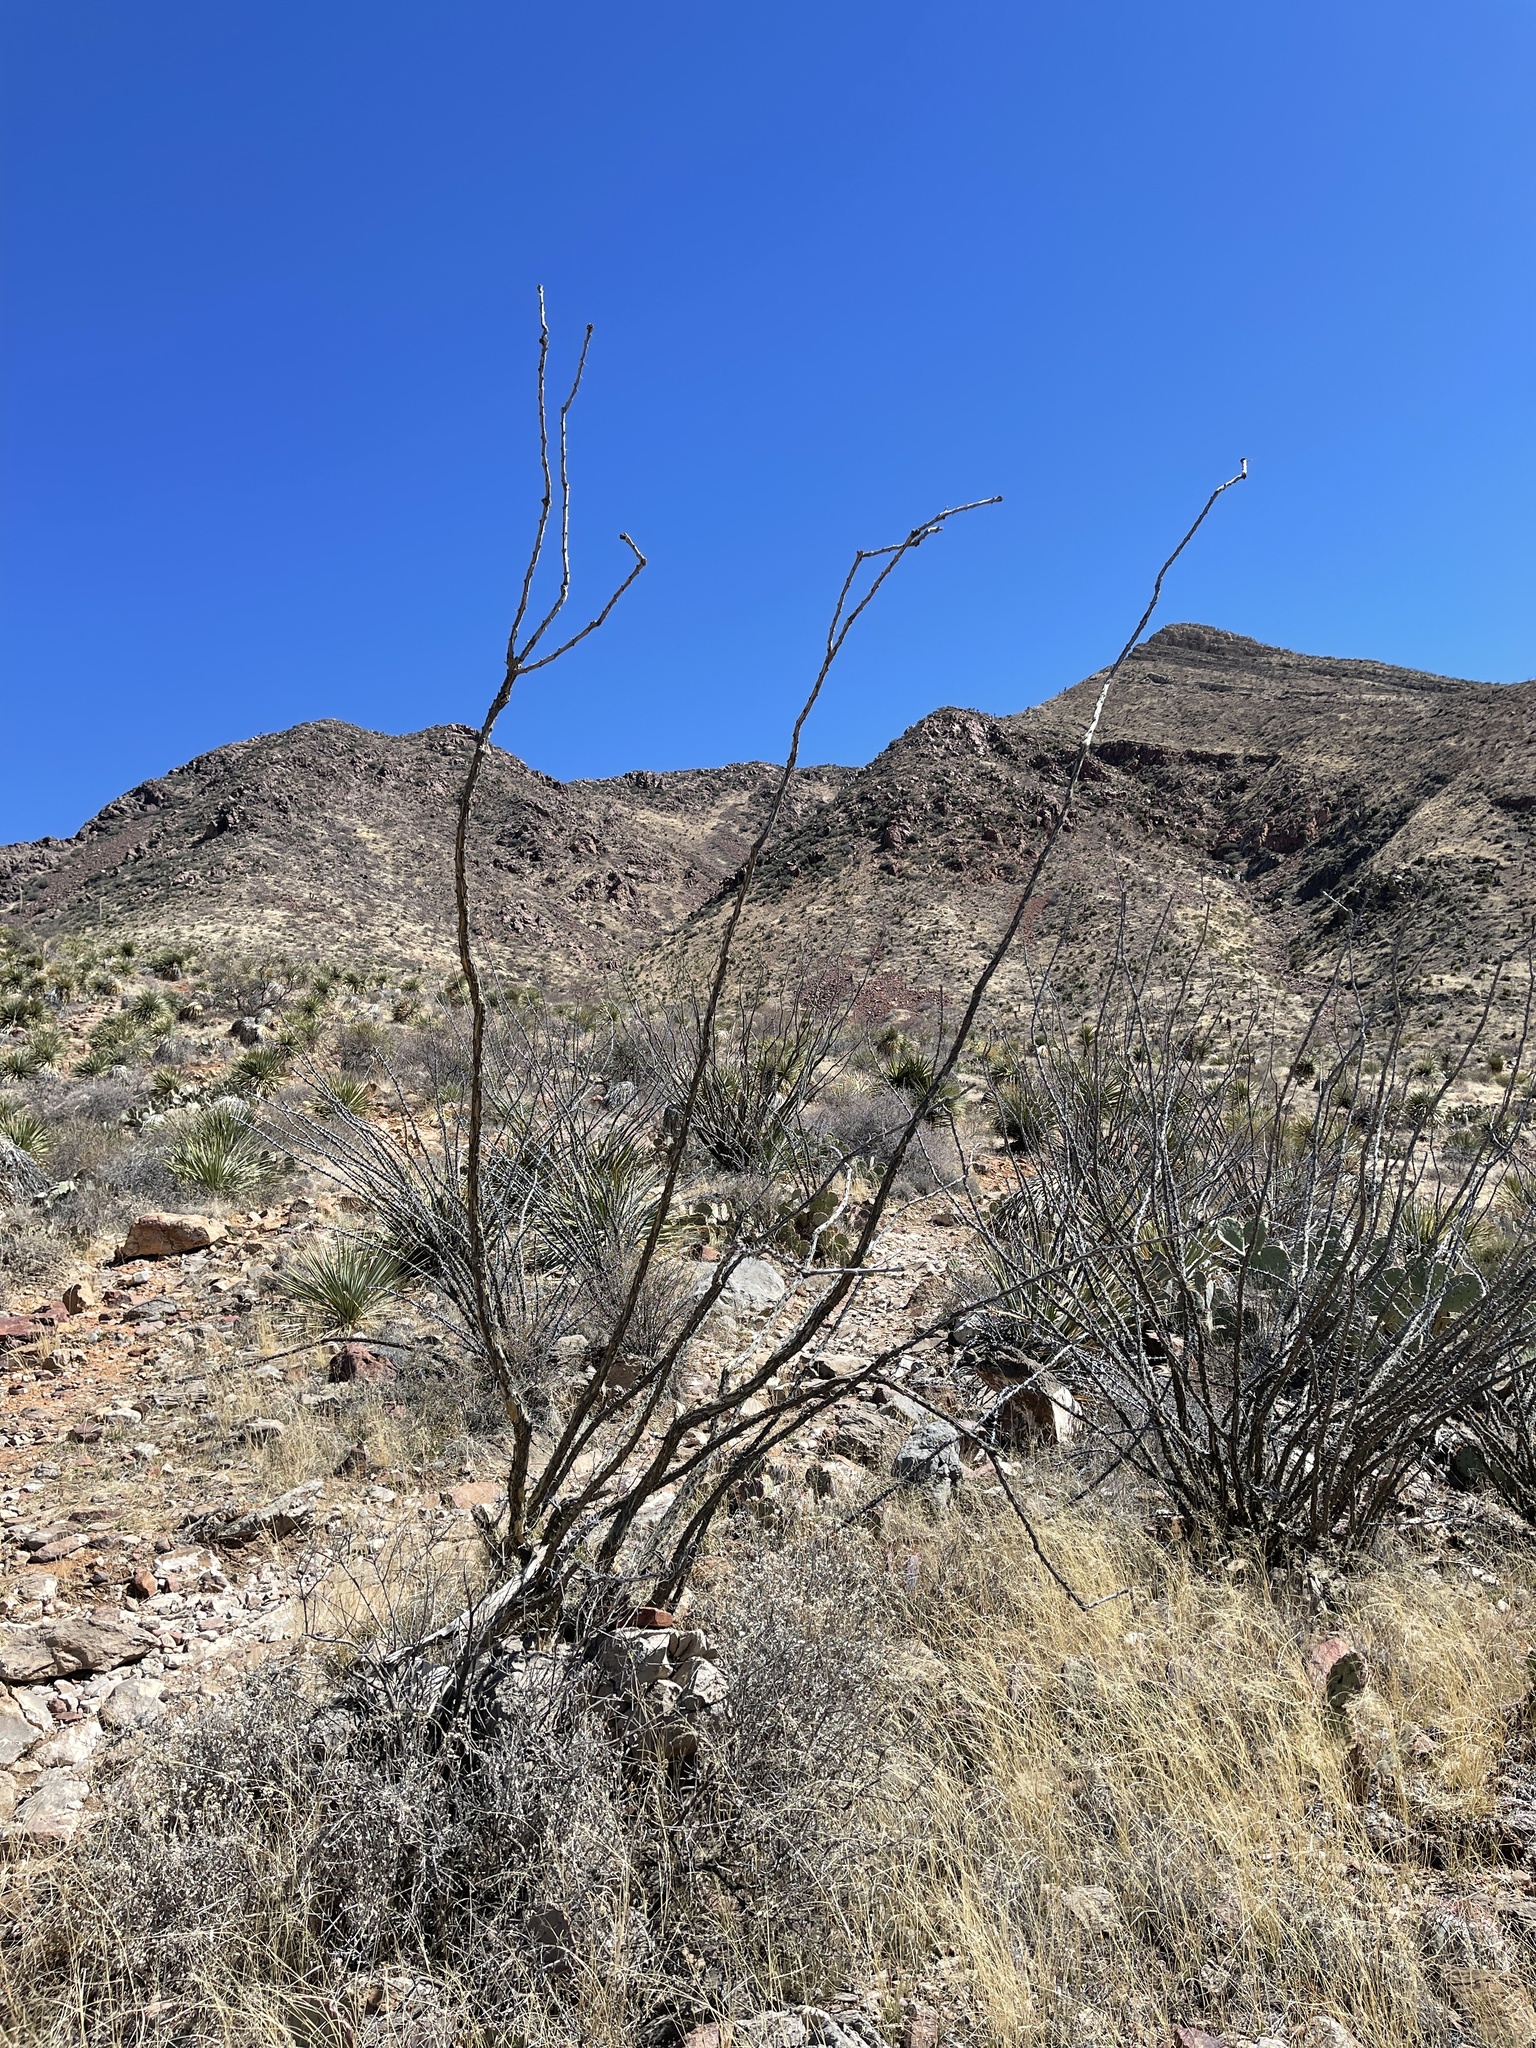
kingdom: Plantae
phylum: Tracheophyta
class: Magnoliopsida
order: Ericales
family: Fouquieriaceae
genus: Fouquieria
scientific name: Fouquieria splendens
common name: Vine-cactus
